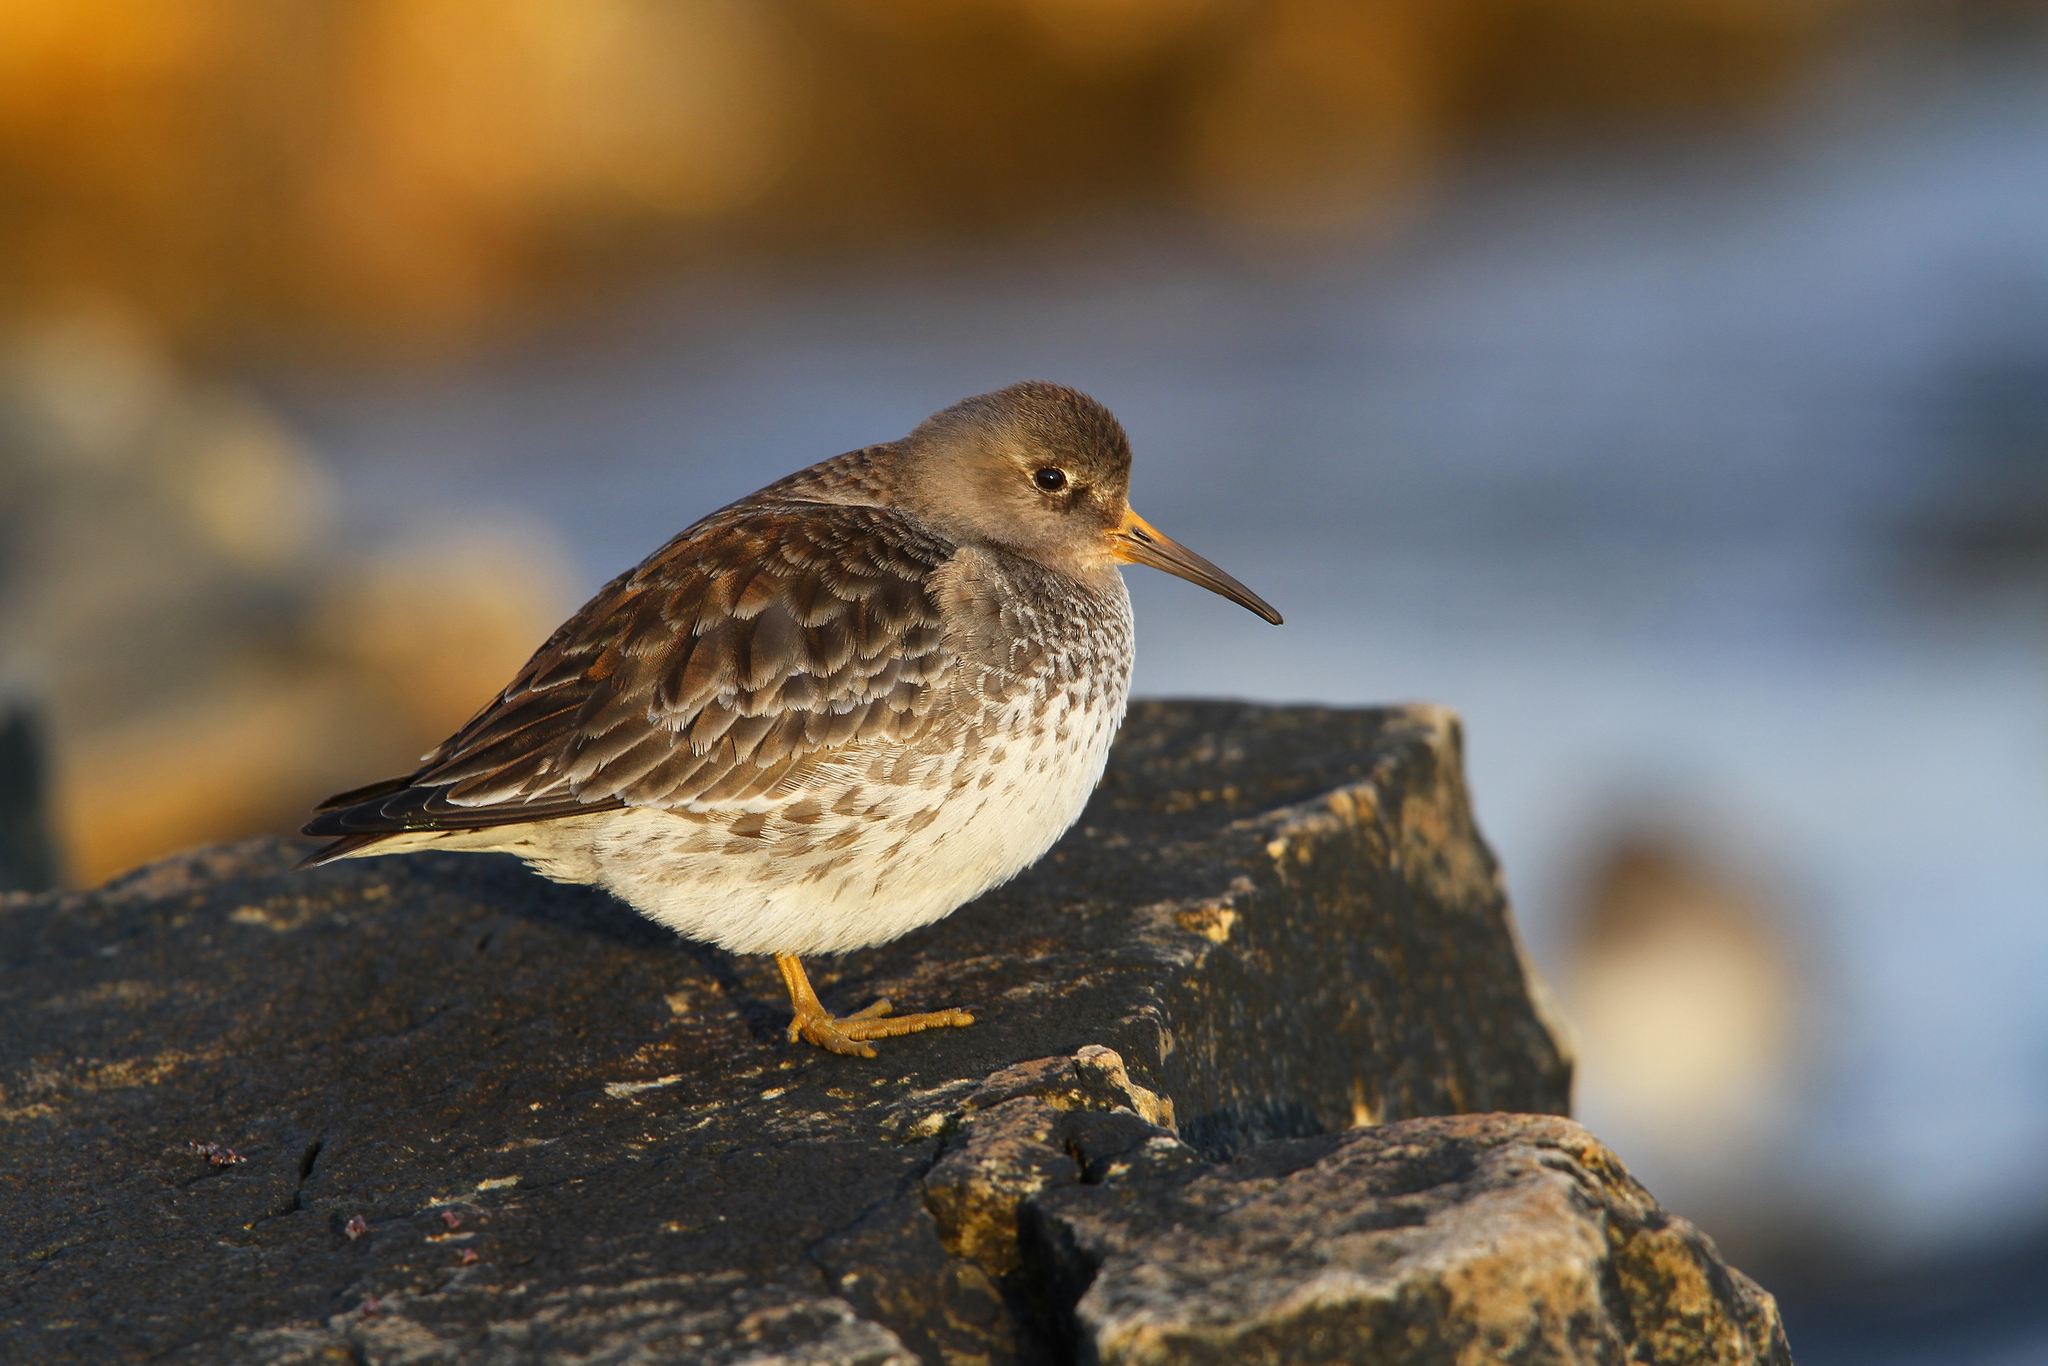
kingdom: Animalia
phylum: Chordata
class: Aves
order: Charadriiformes
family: Scolopacidae
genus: Calidris
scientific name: Calidris maritima
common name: Purple sandpiper
